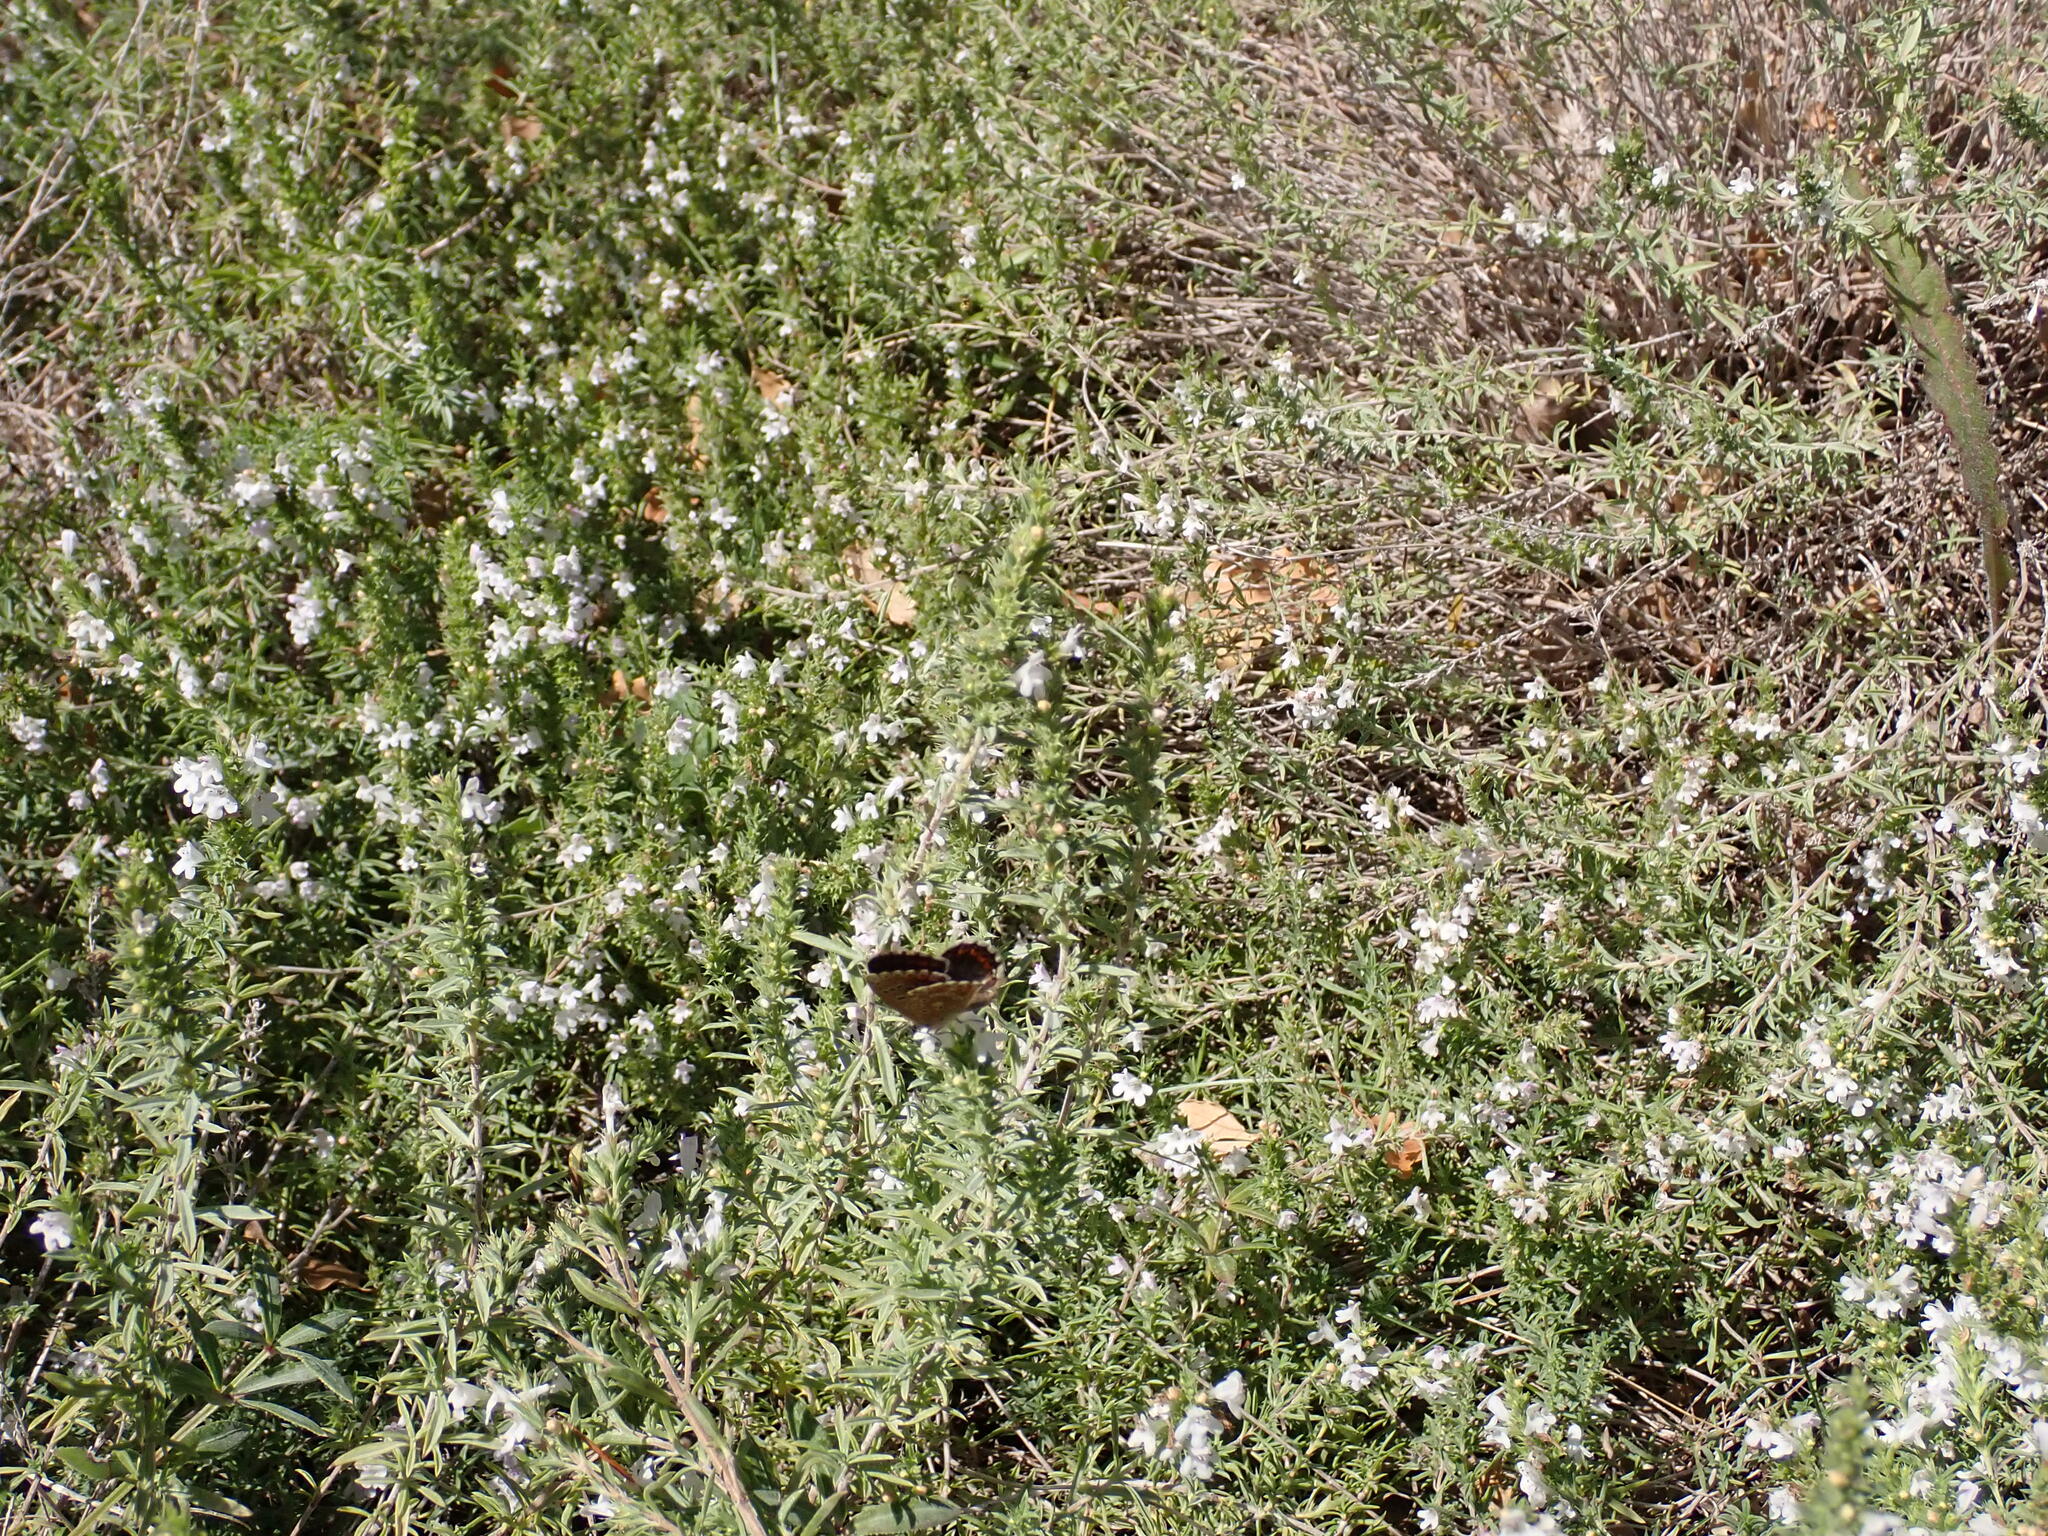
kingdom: Animalia
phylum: Arthropoda
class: Insecta
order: Lepidoptera
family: Lycaenidae
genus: Lysandra
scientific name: Lysandra bellargus
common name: Adonis blue
